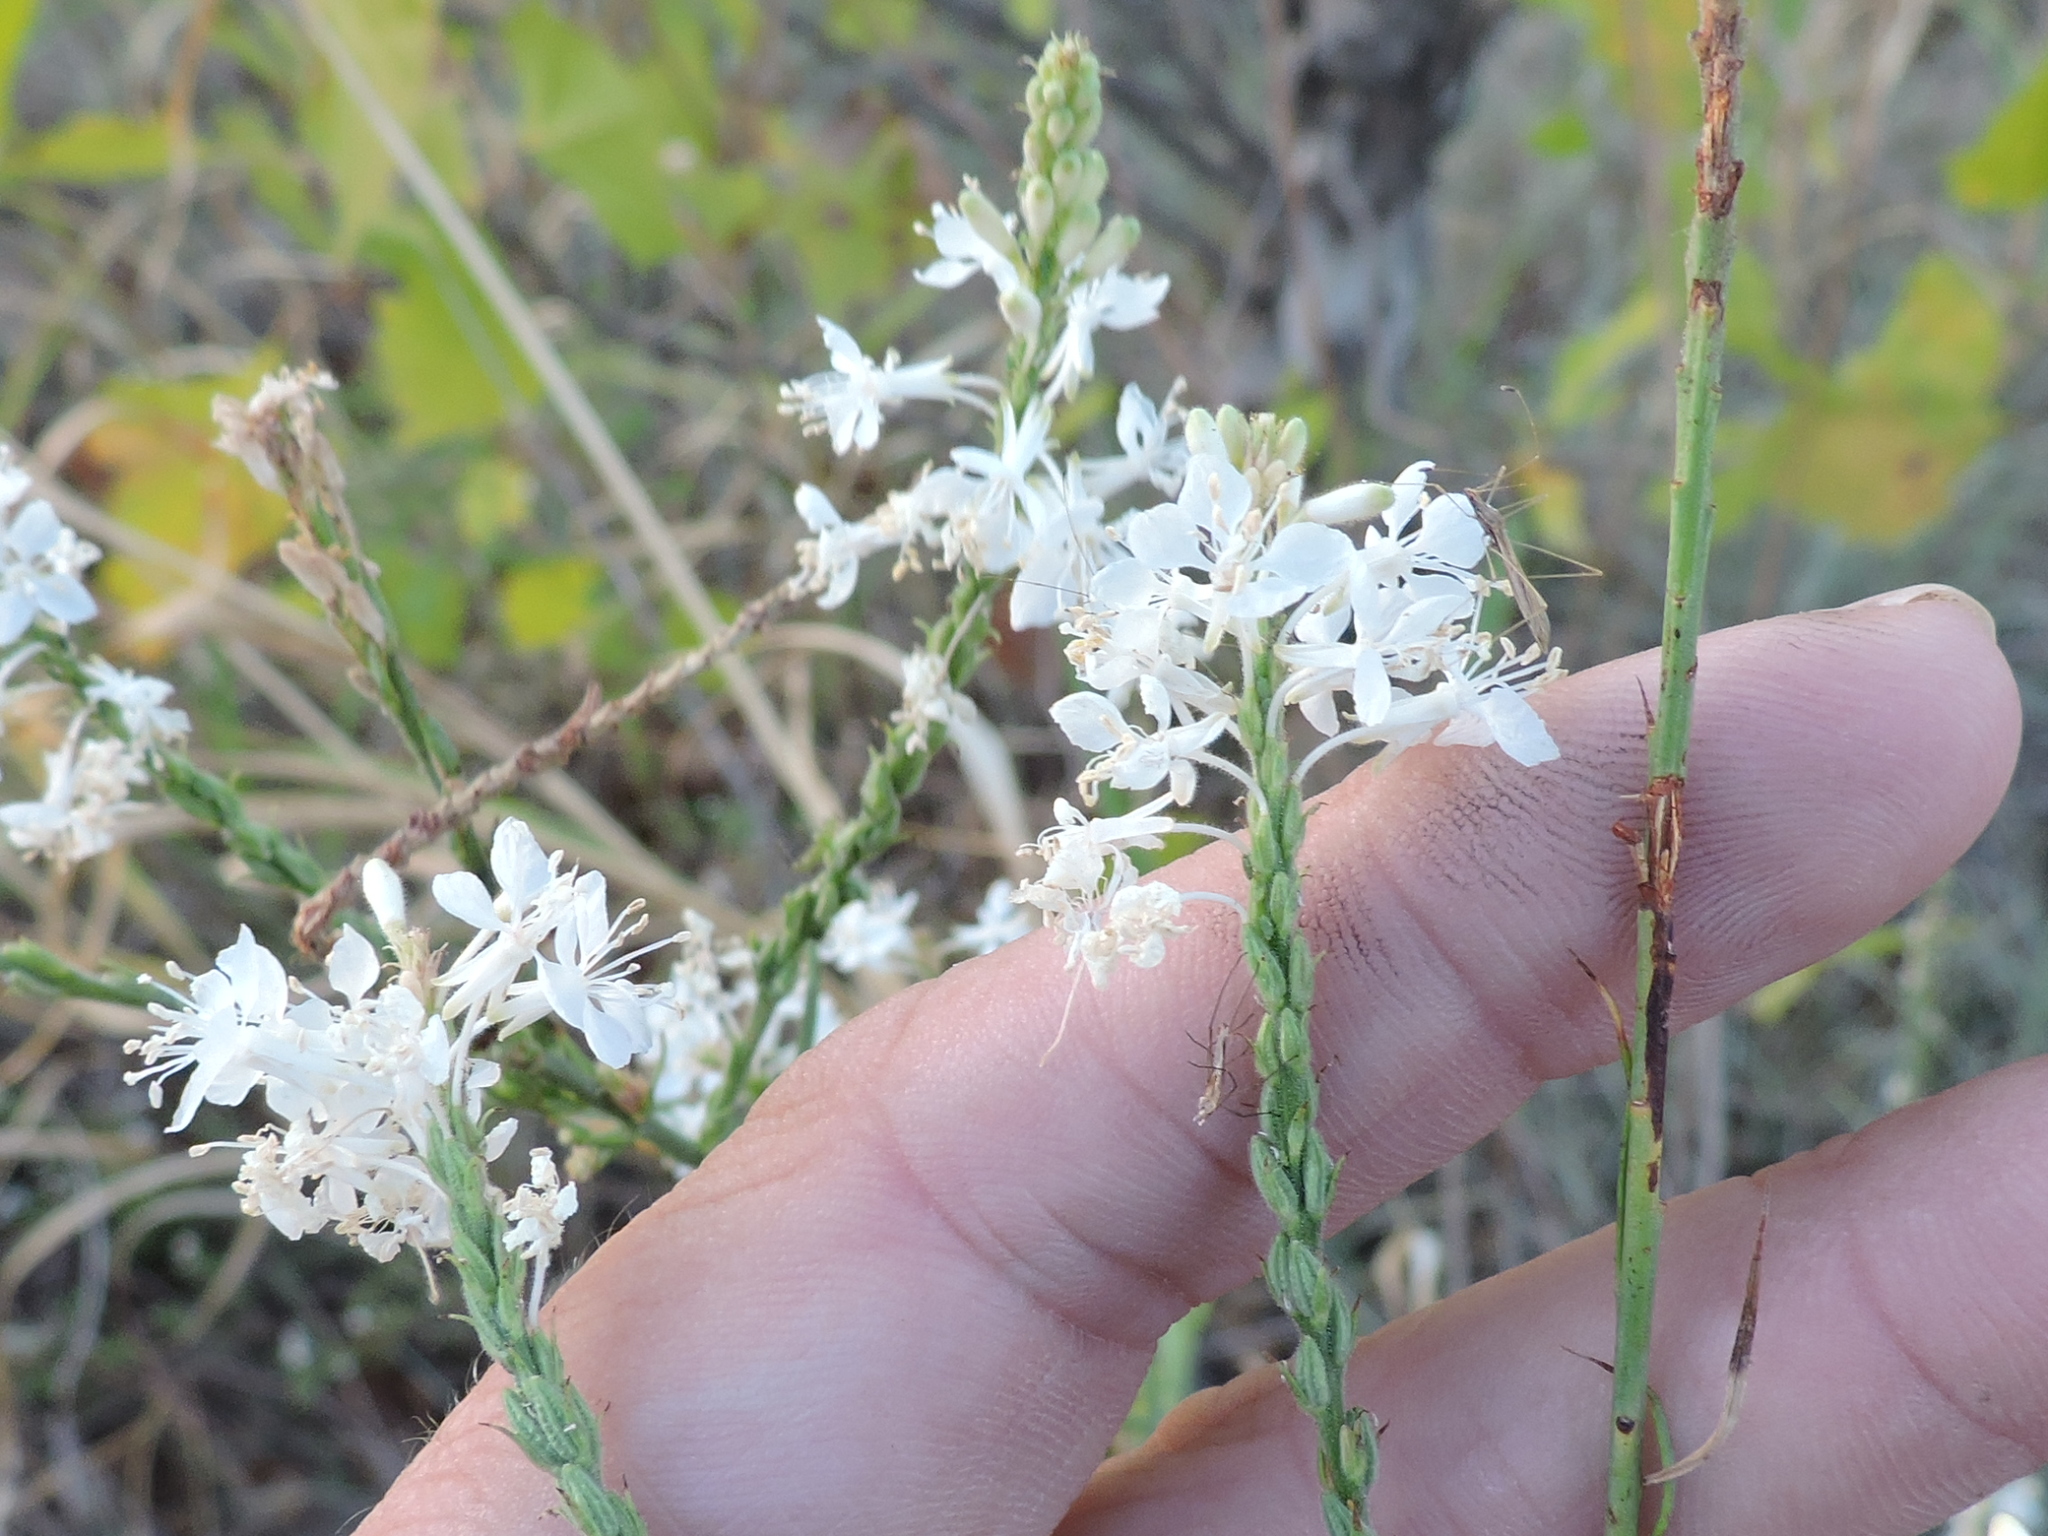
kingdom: Plantae
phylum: Tracheophyta
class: Magnoliopsida
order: Myrtales
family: Onagraceae
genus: Oenothera
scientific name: Oenothera glaucifolia
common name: False gaura
